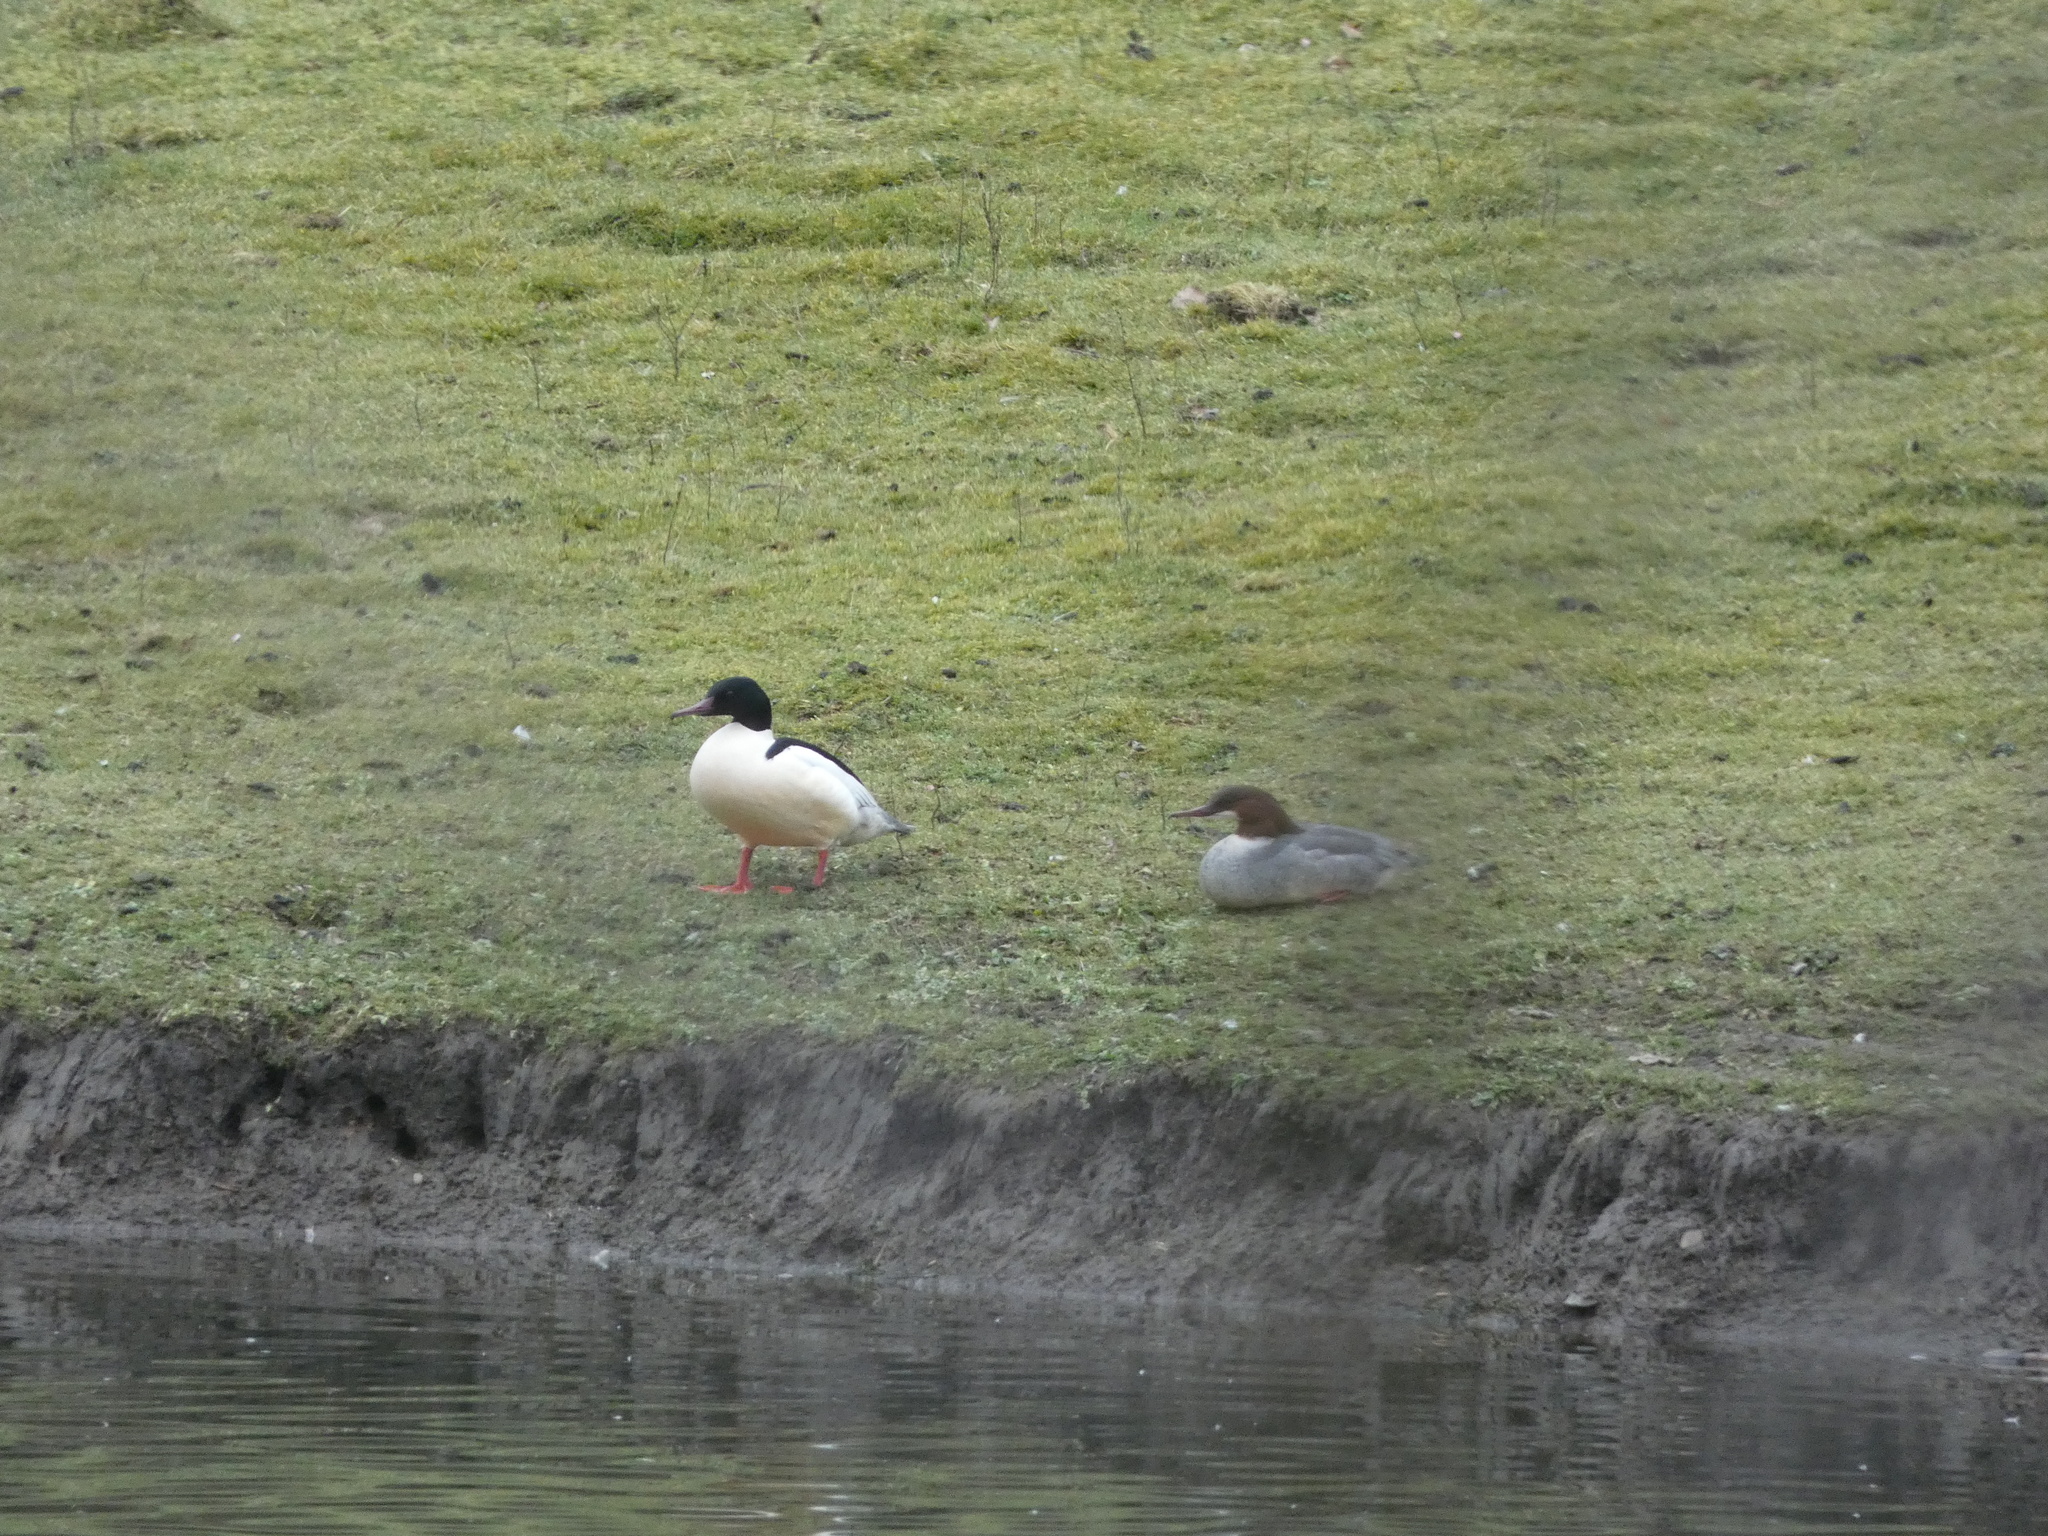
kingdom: Animalia
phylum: Chordata
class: Aves
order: Anseriformes
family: Anatidae
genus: Mergus
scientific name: Mergus merganser
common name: Common merganser
